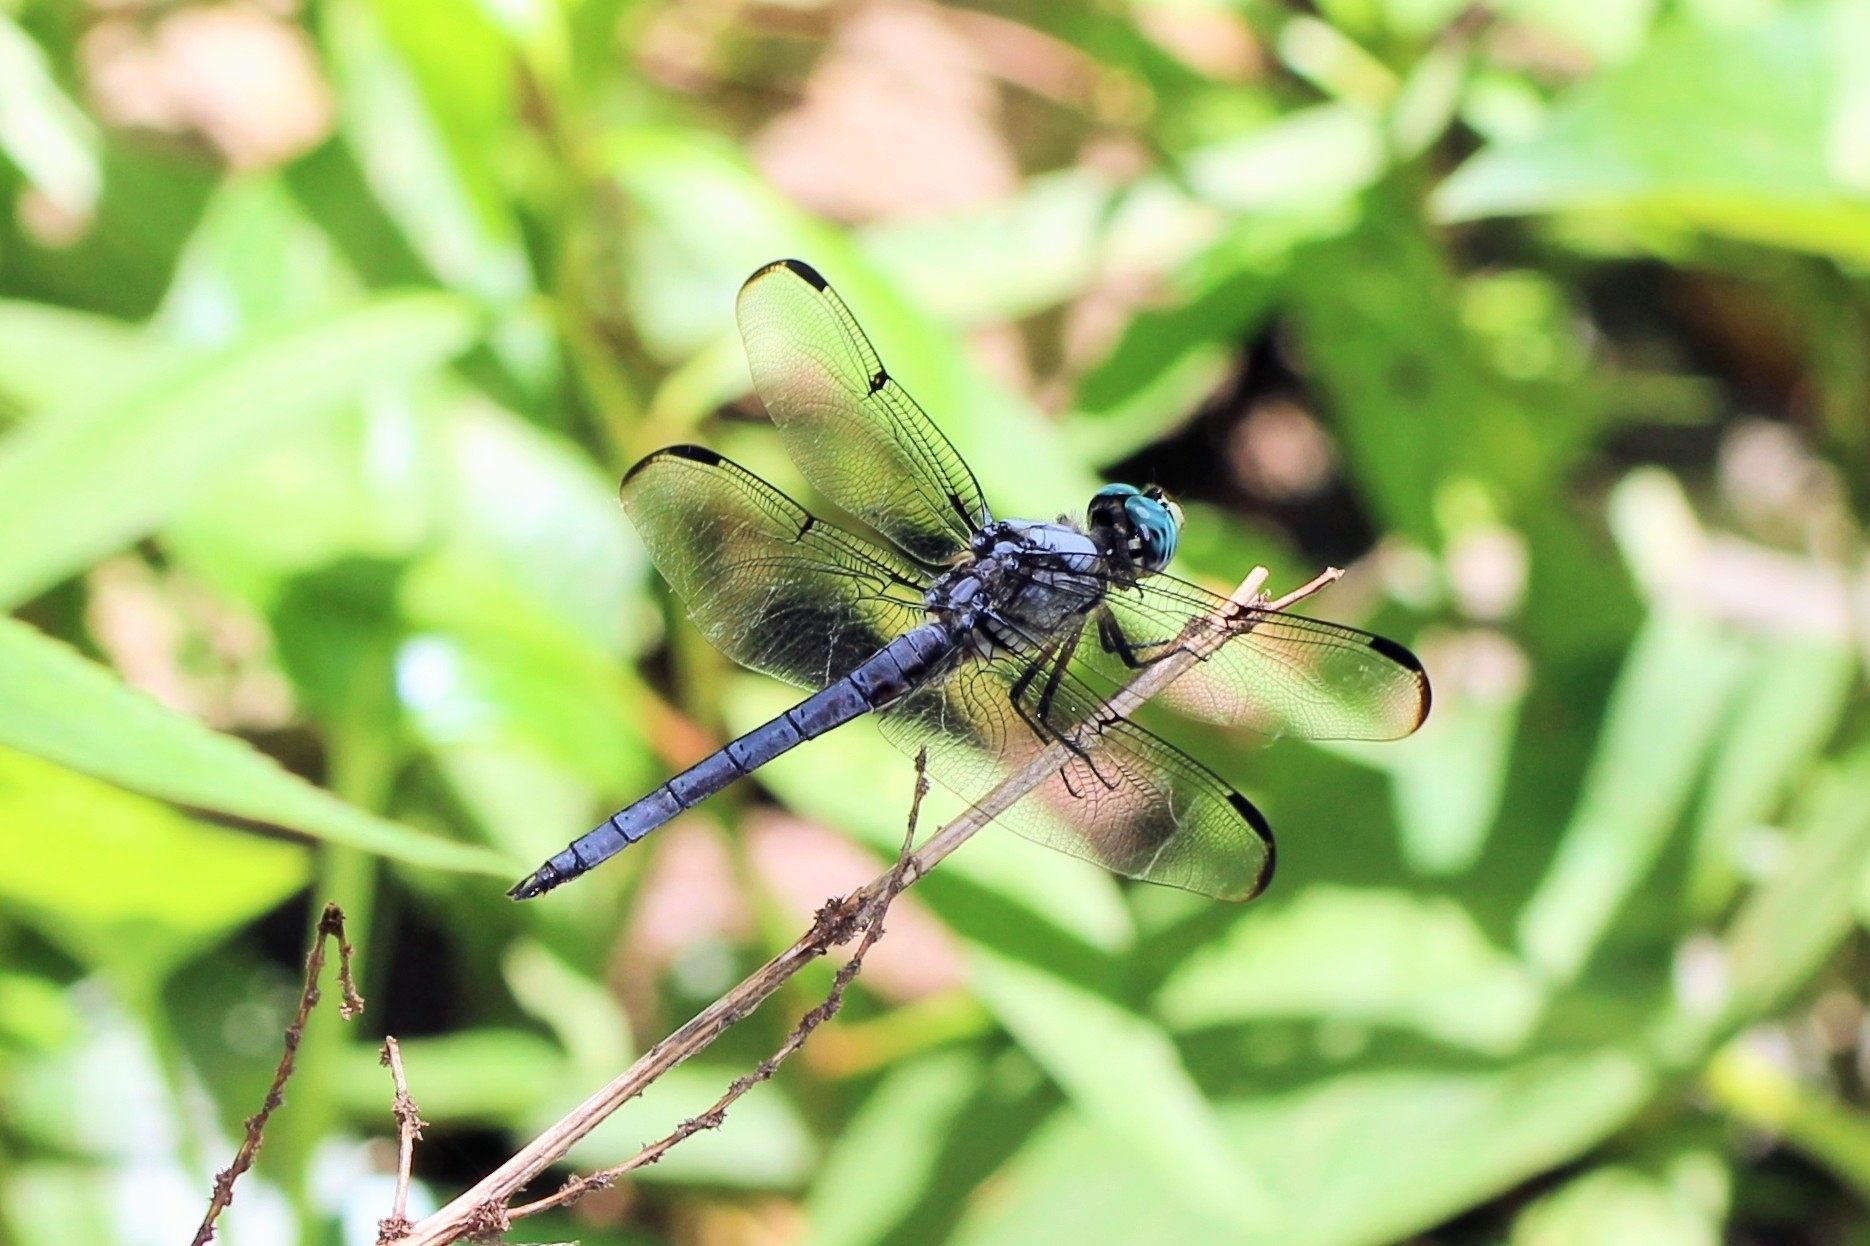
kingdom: Animalia
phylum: Arthropoda
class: Insecta
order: Odonata
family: Libellulidae
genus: Libellula
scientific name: Libellula vibrans
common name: Great blue skimmer
